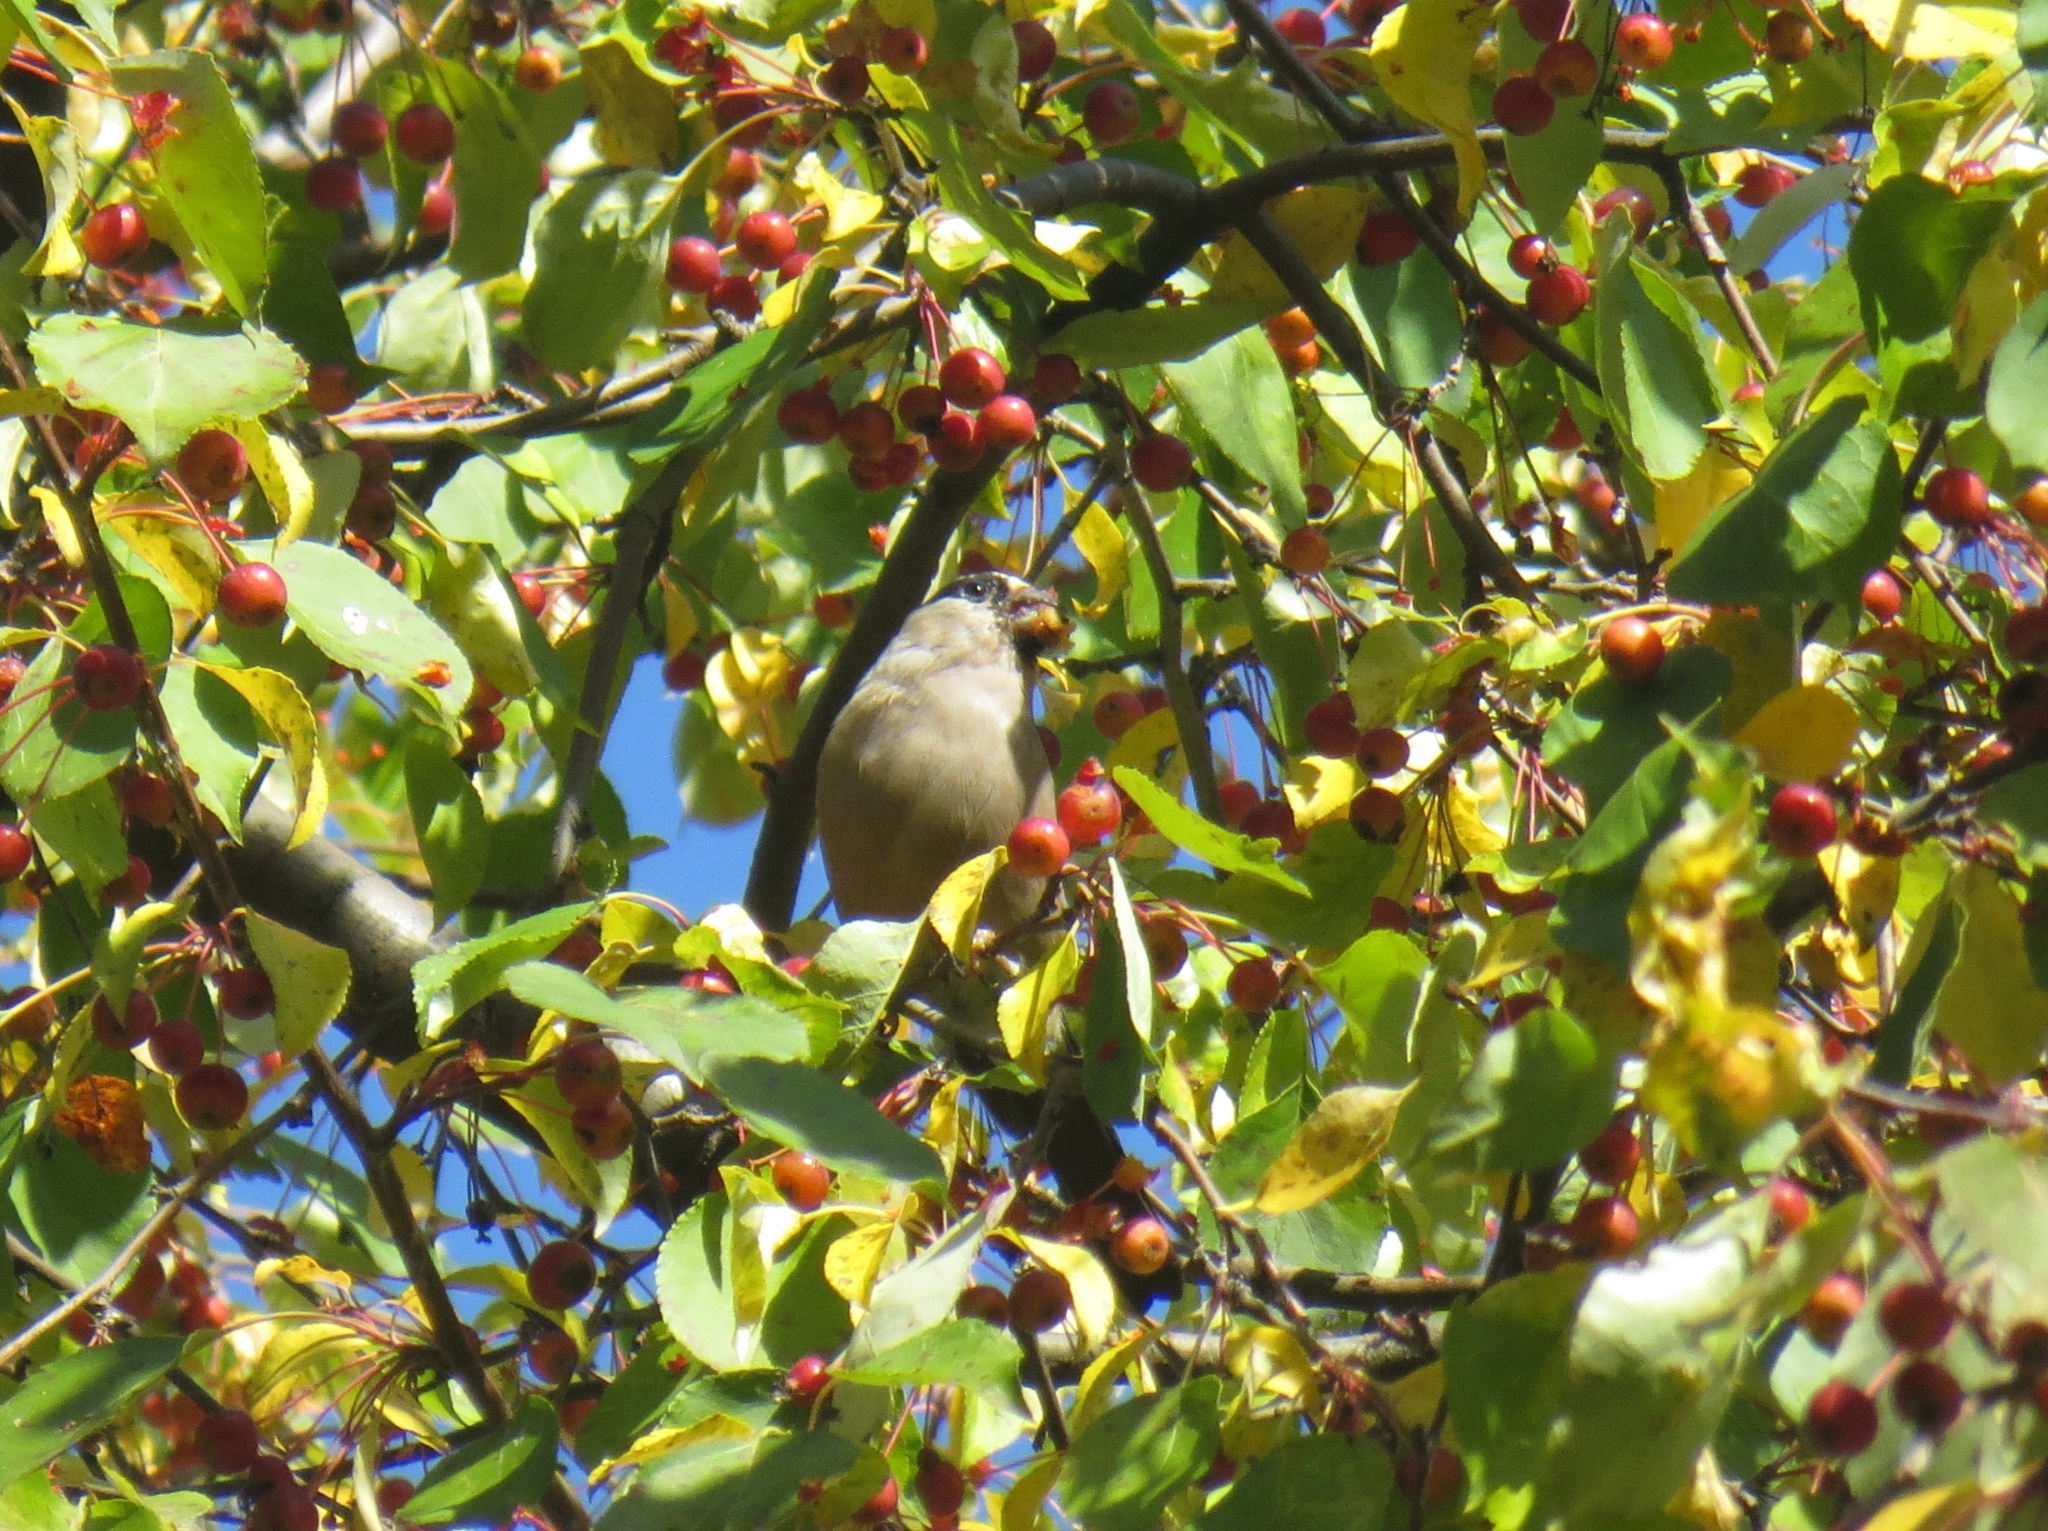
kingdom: Animalia
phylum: Chordata
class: Aves
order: Passeriformes
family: Fringillidae
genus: Pyrrhula
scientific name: Pyrrhula pyrrhula
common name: Eurasian bullfinch
